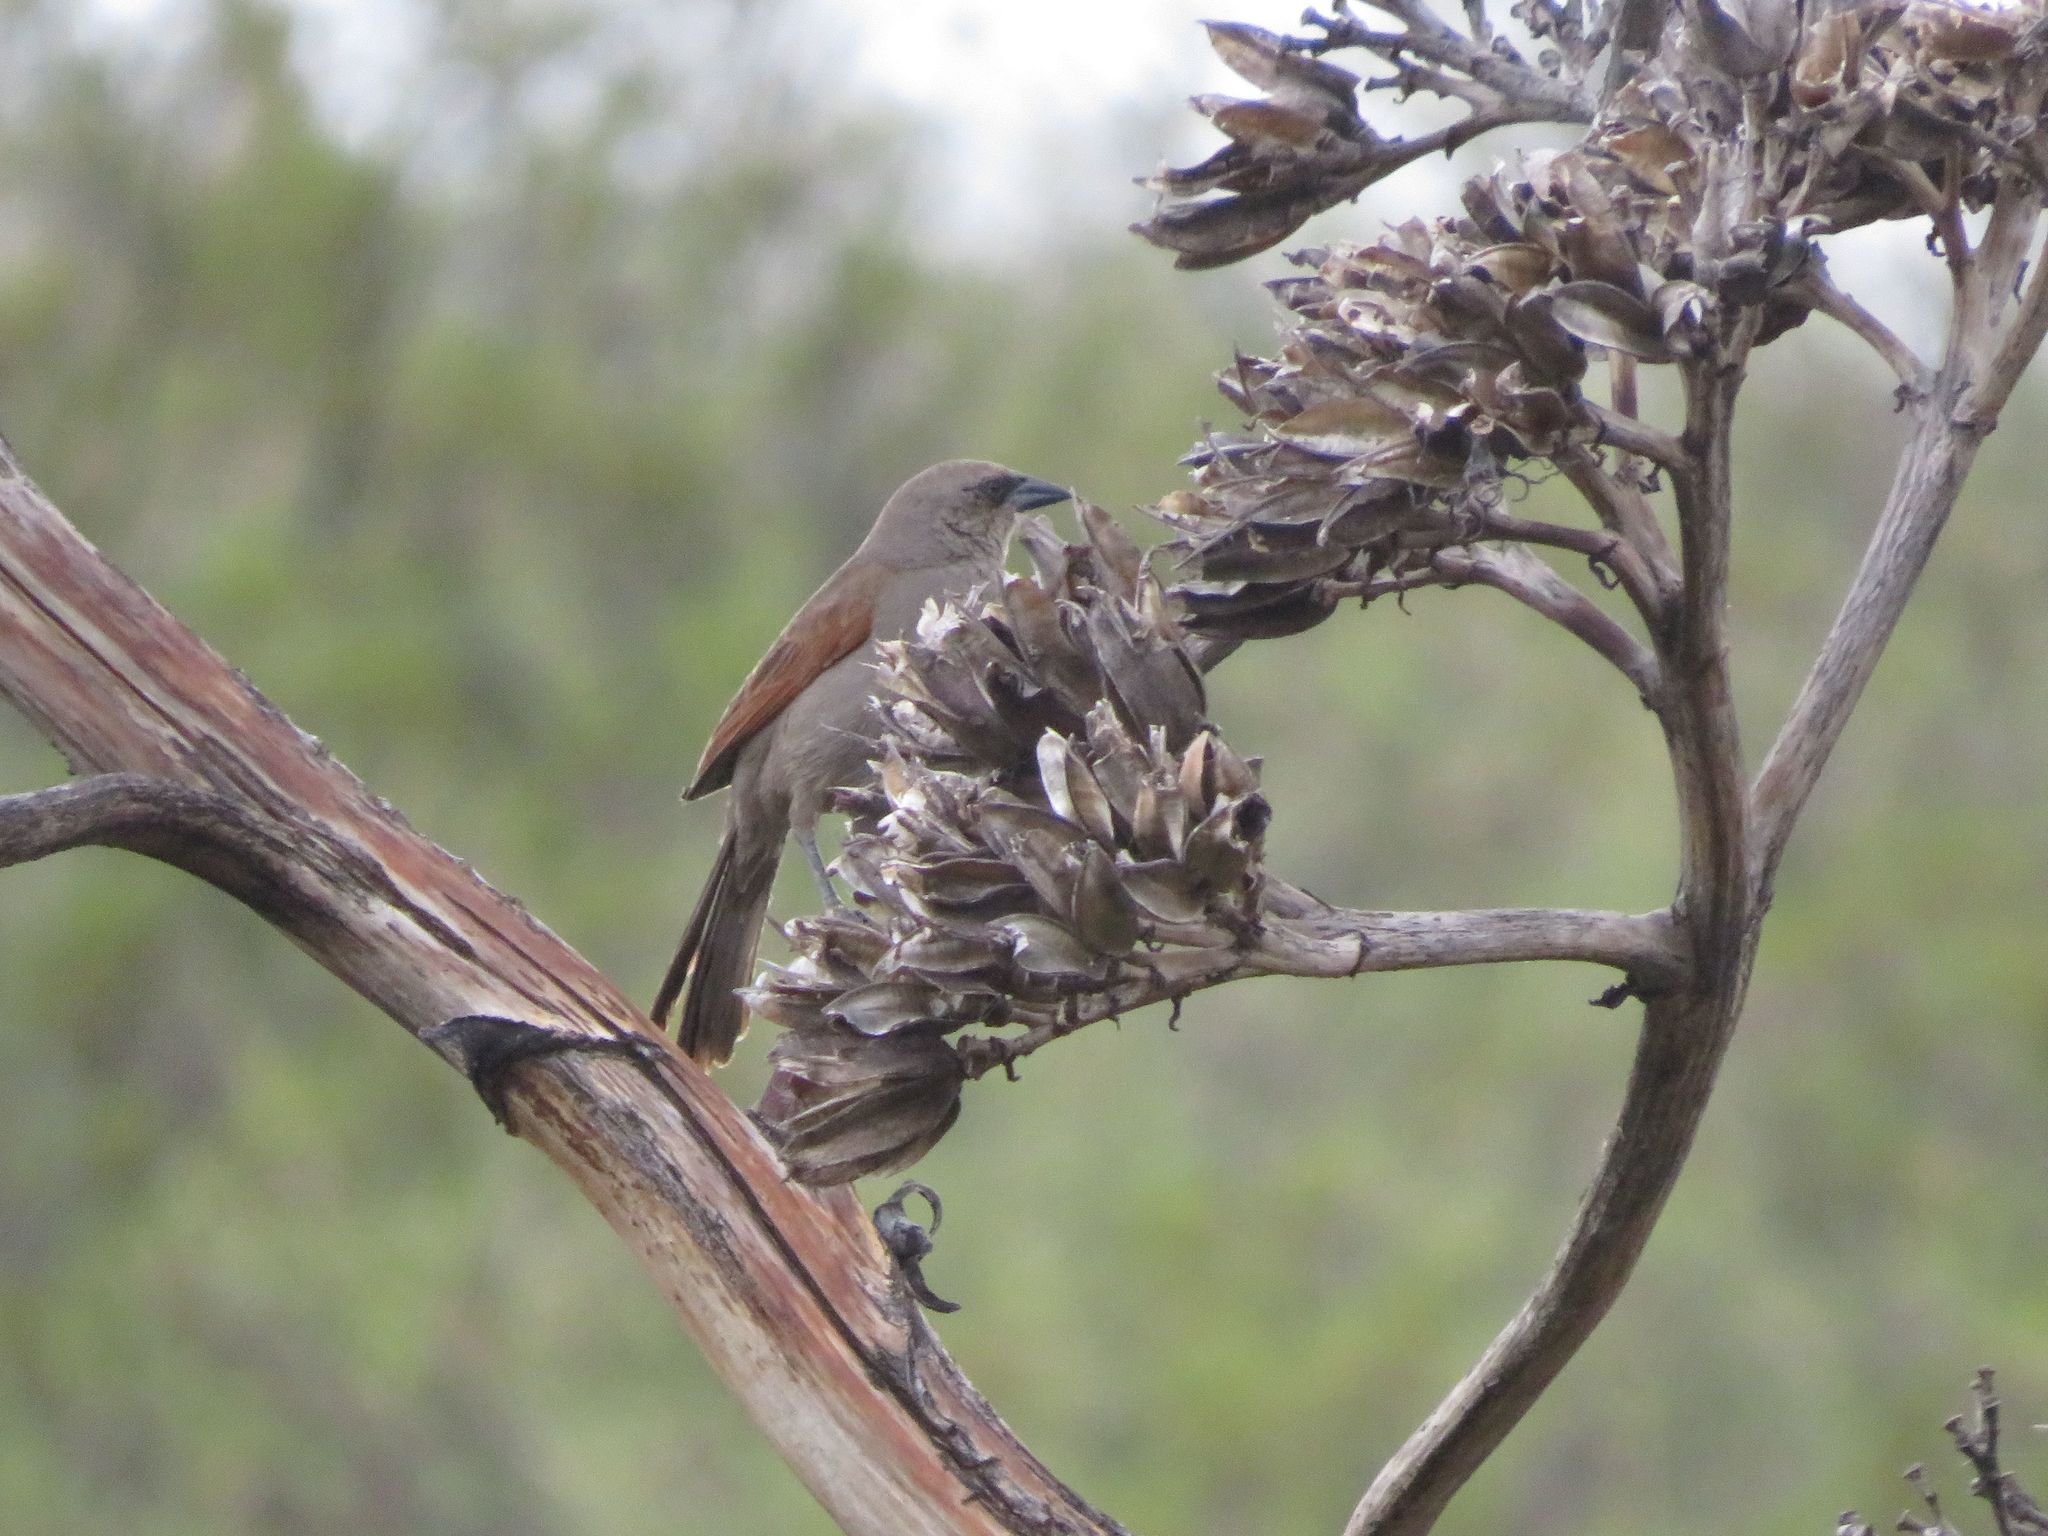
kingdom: Animalia
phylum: Chordata
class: Aves
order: Passeriformes
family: Icteridae
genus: Agelaioides
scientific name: Agelaioides badius
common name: Baywing
